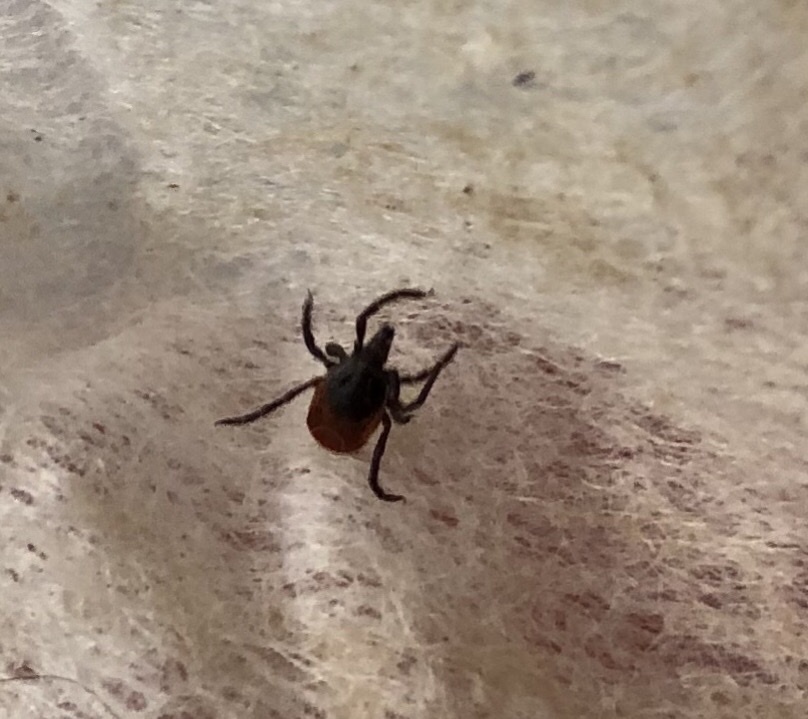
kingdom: Animalia
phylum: Arthropoda
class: Arachnida
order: Ixodida
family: Ixodidae
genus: Ixodes
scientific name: Ixodes ricinus
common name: Castor bean tick
